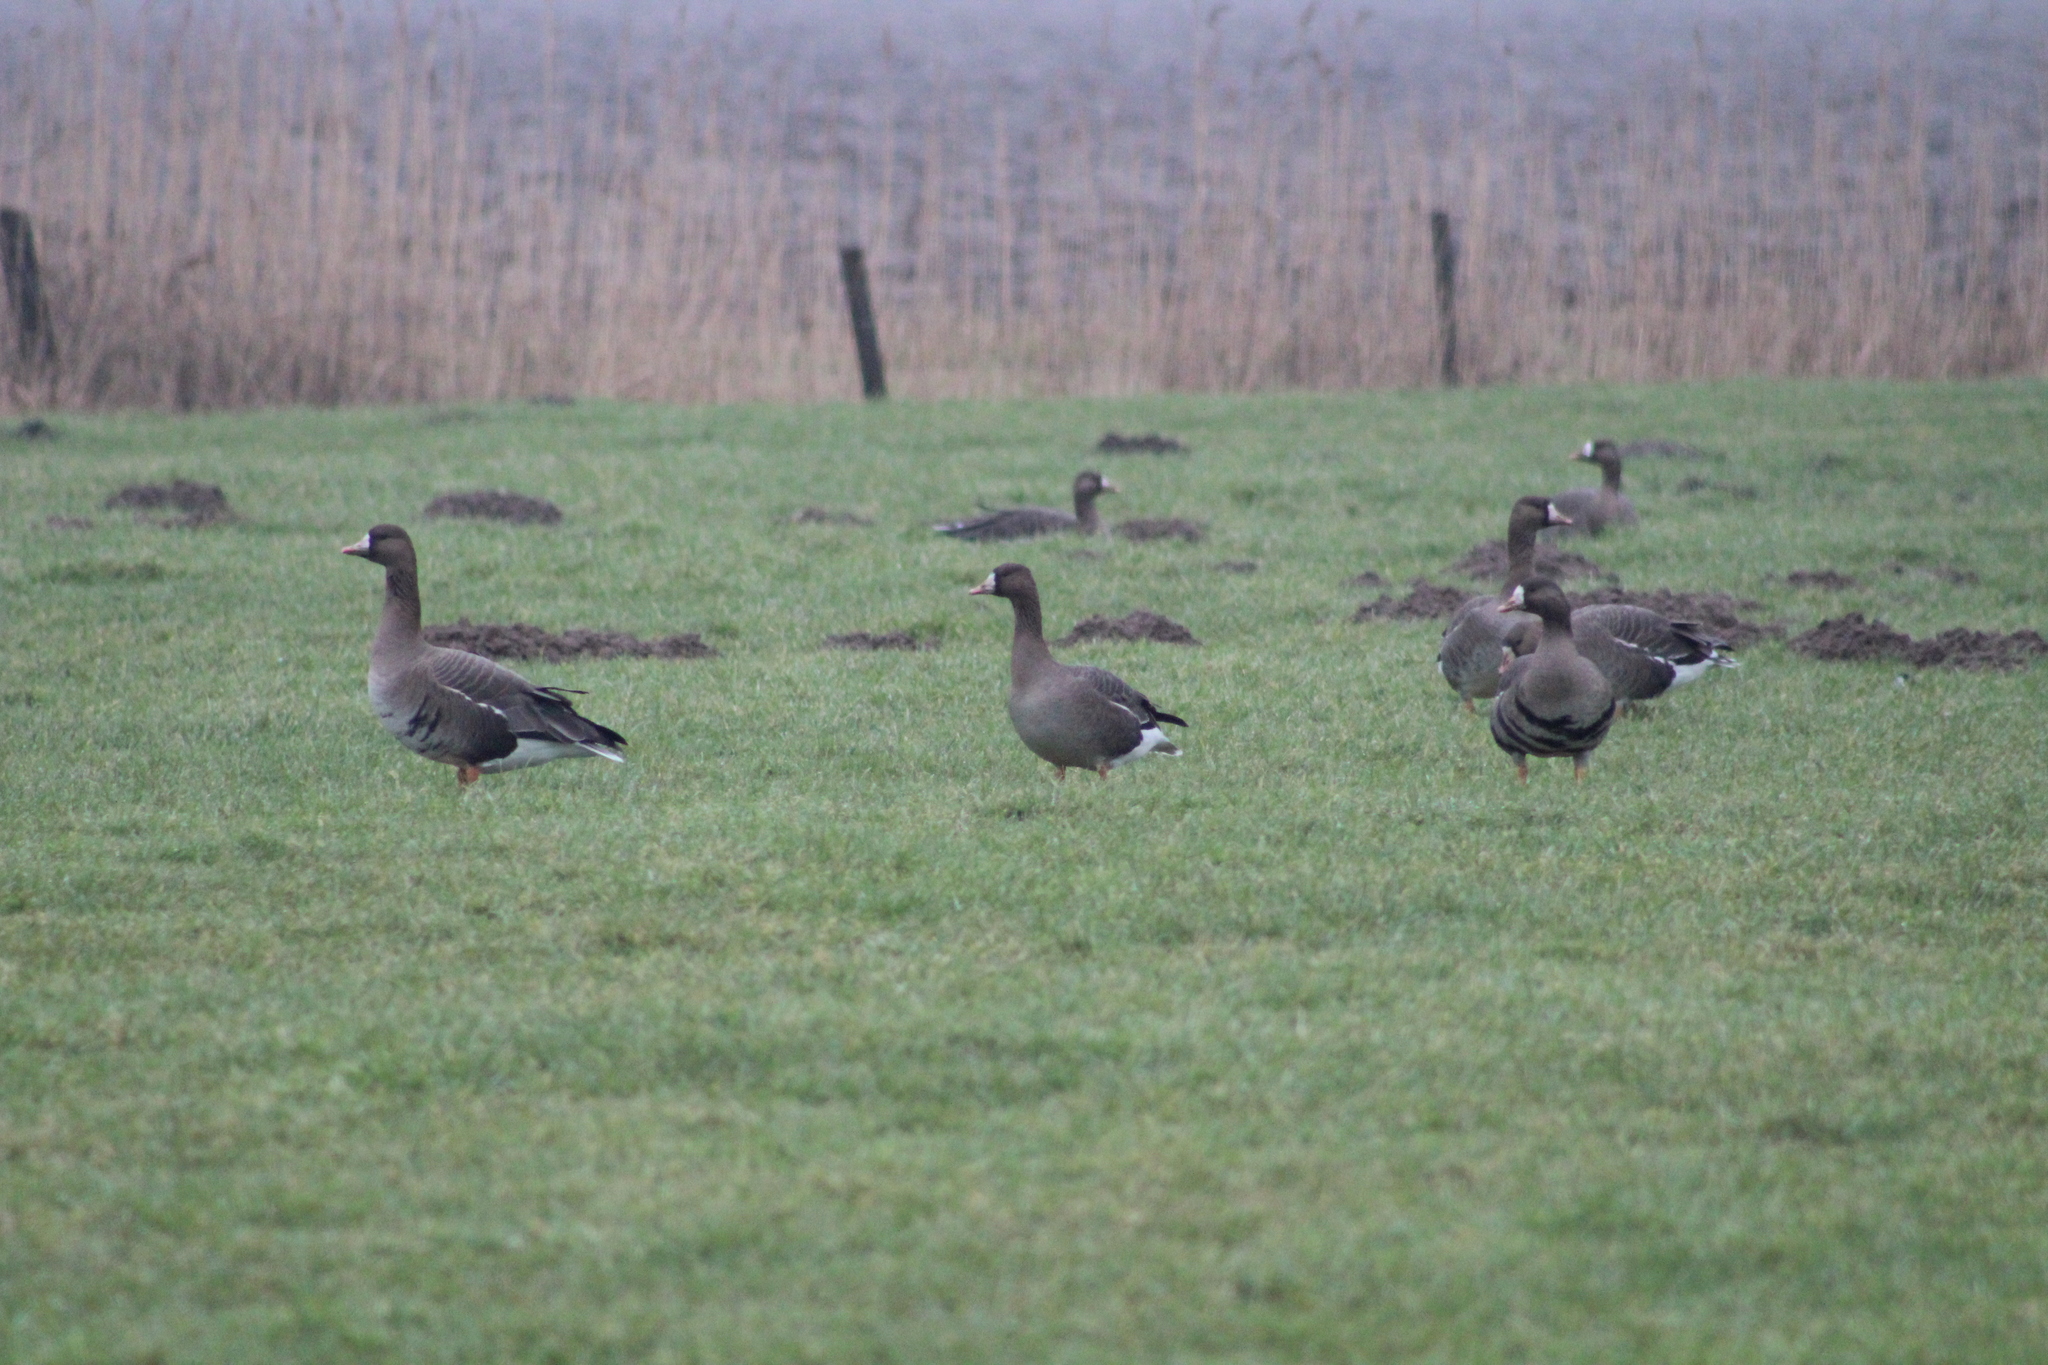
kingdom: Animalia
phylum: Chordata
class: Aves
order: Anseriformes
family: Anatidae
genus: Anser
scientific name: Anser albifrons
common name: Greater white-fronted goose
